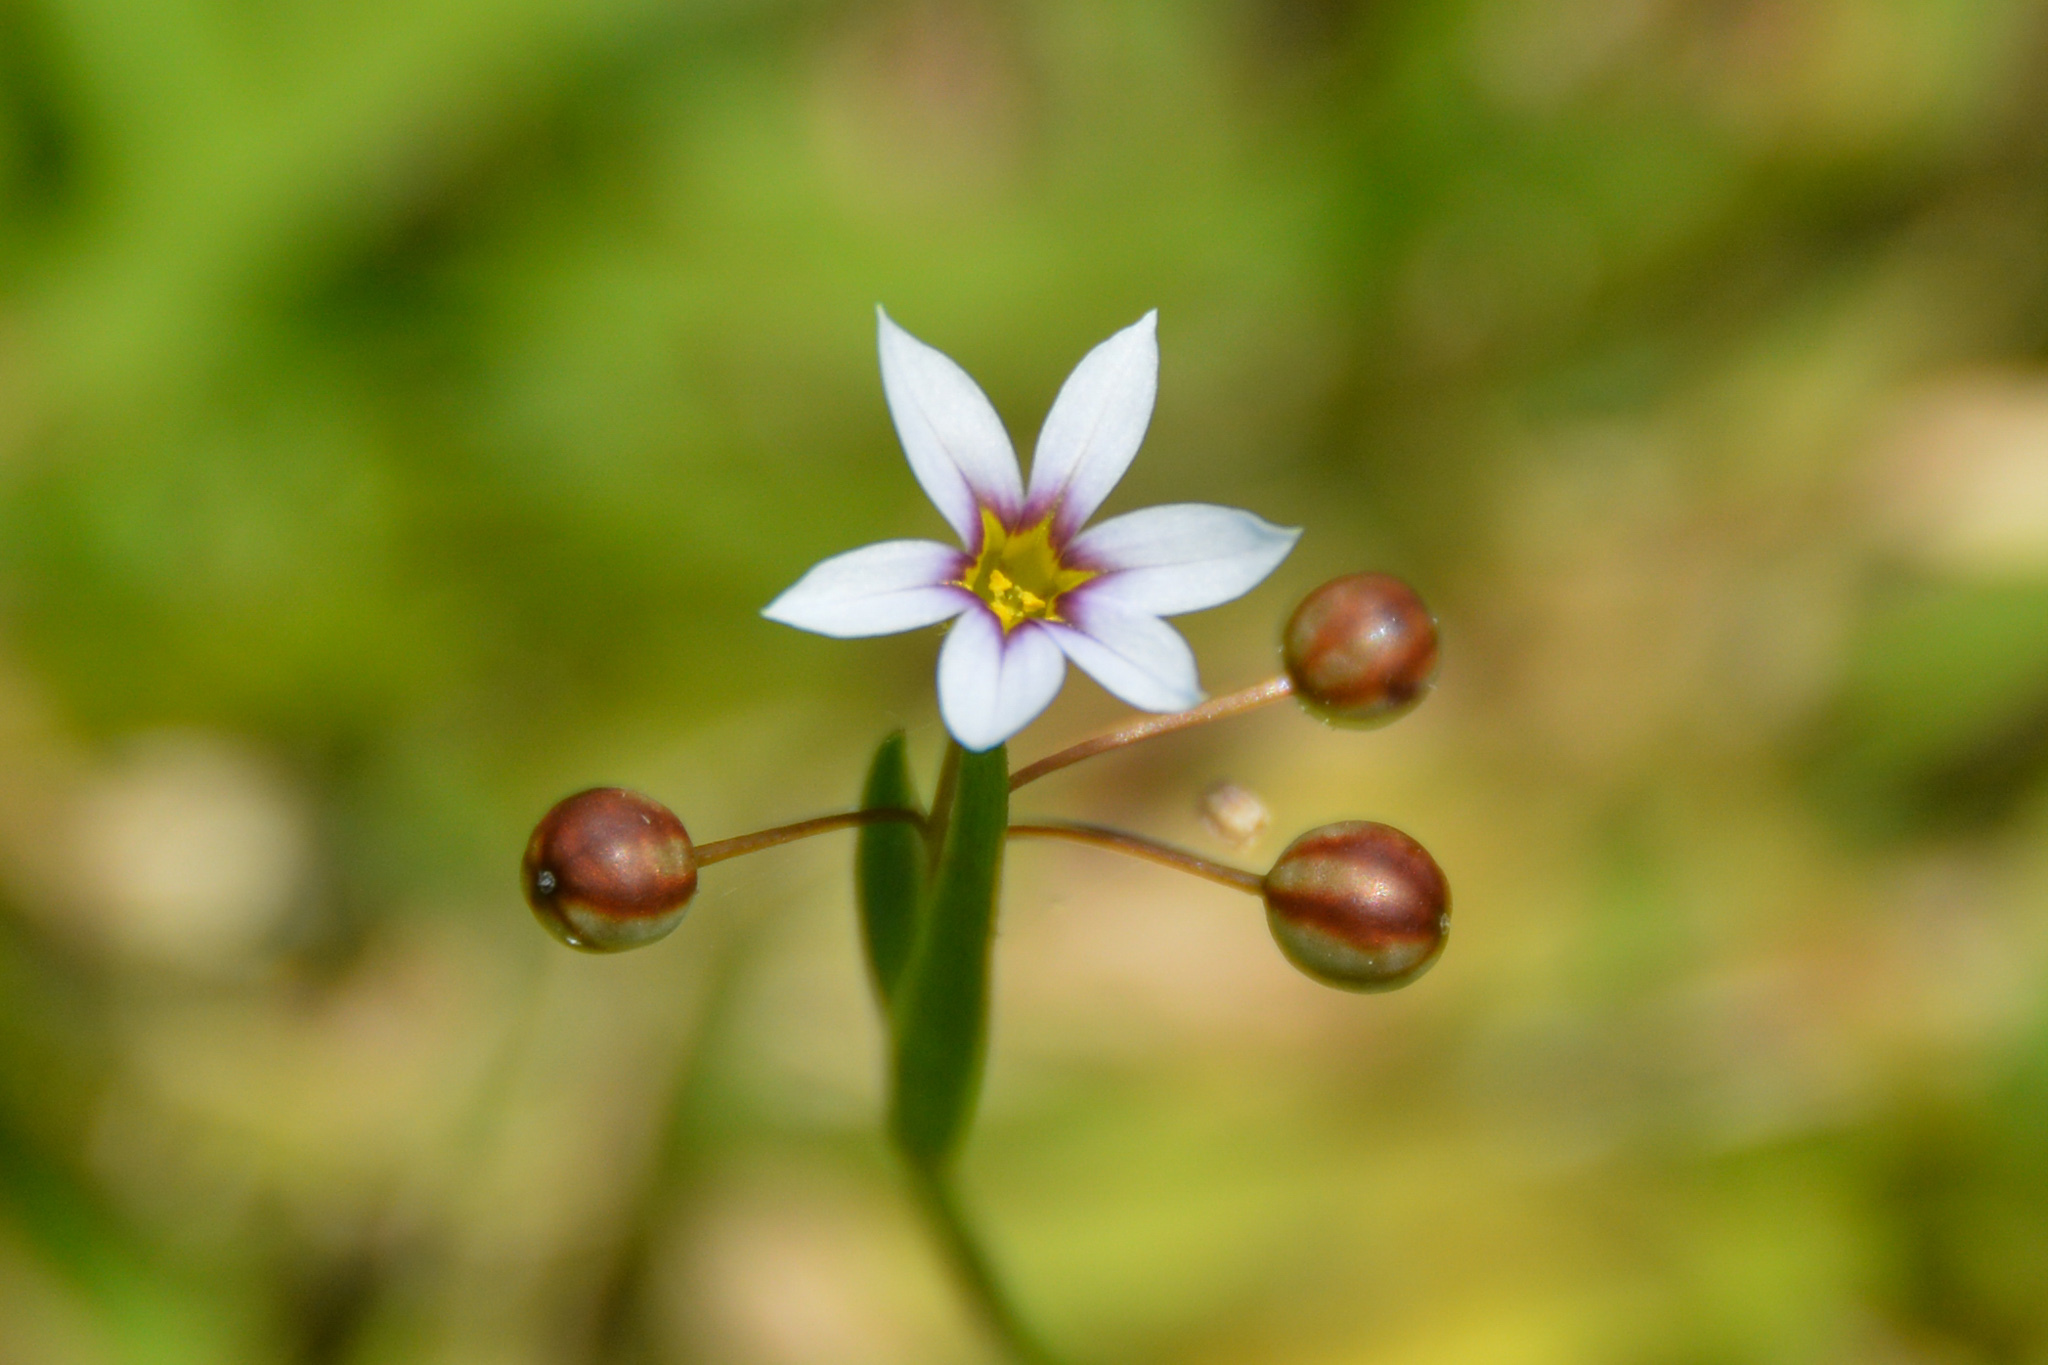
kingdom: Plantae
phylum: Tracheophyta
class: Liliopsida
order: Asparagales
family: Iridaceae
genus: Sisyrinchium
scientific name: Sisyrinchium micranthum
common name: Bermuda pigroot
